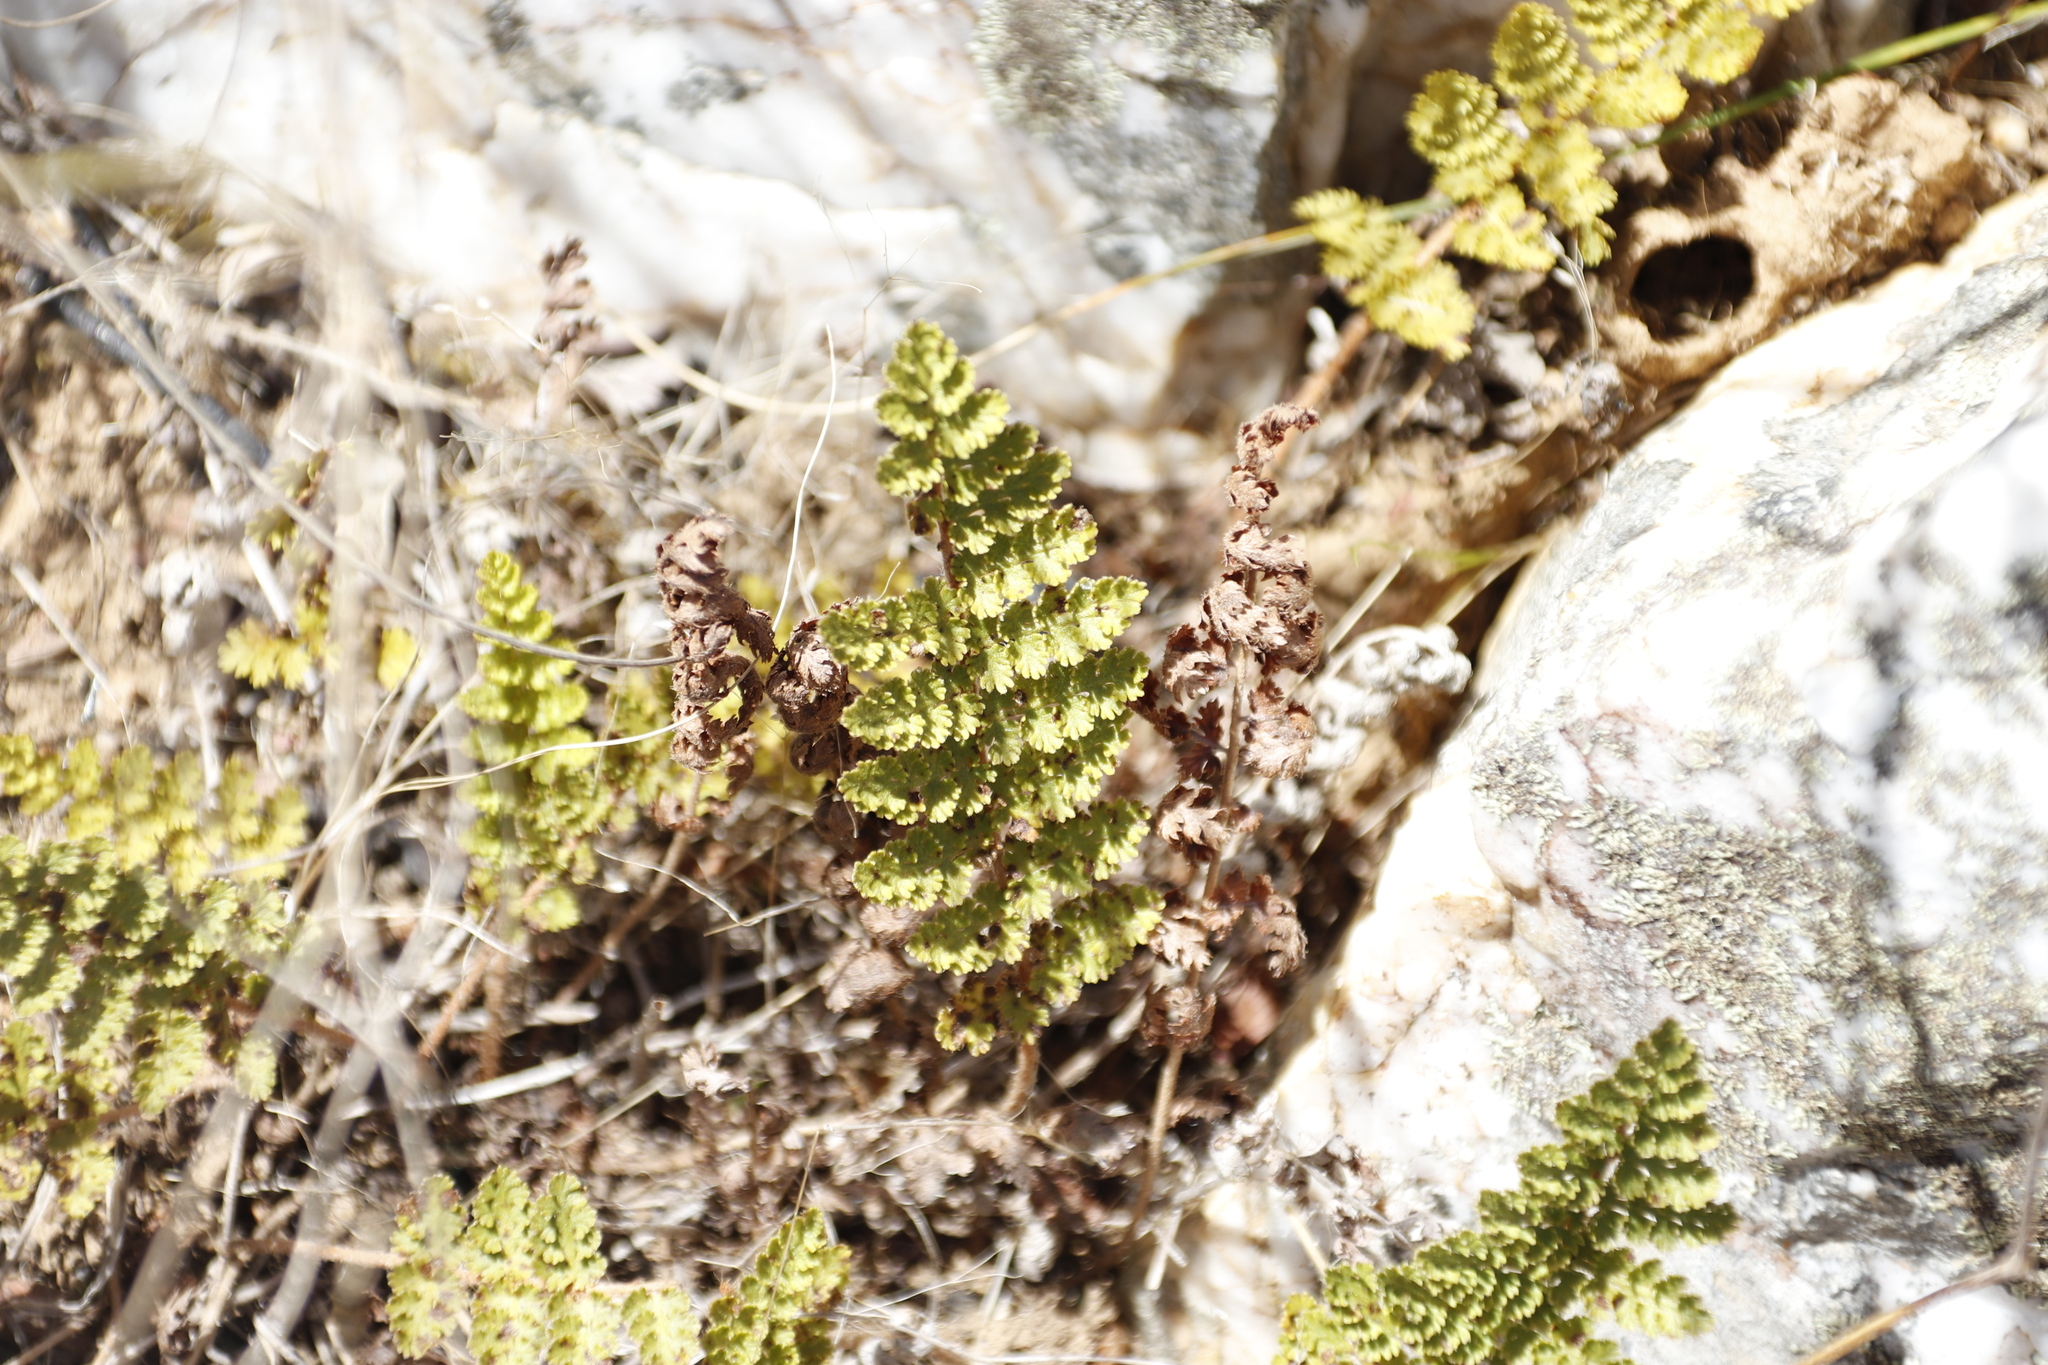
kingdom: Plantae
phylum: Tracheophyta
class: Polypodiopsida
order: Schizaeales
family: Anemiaceae
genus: Anemia
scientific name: Anemia caffrorum
